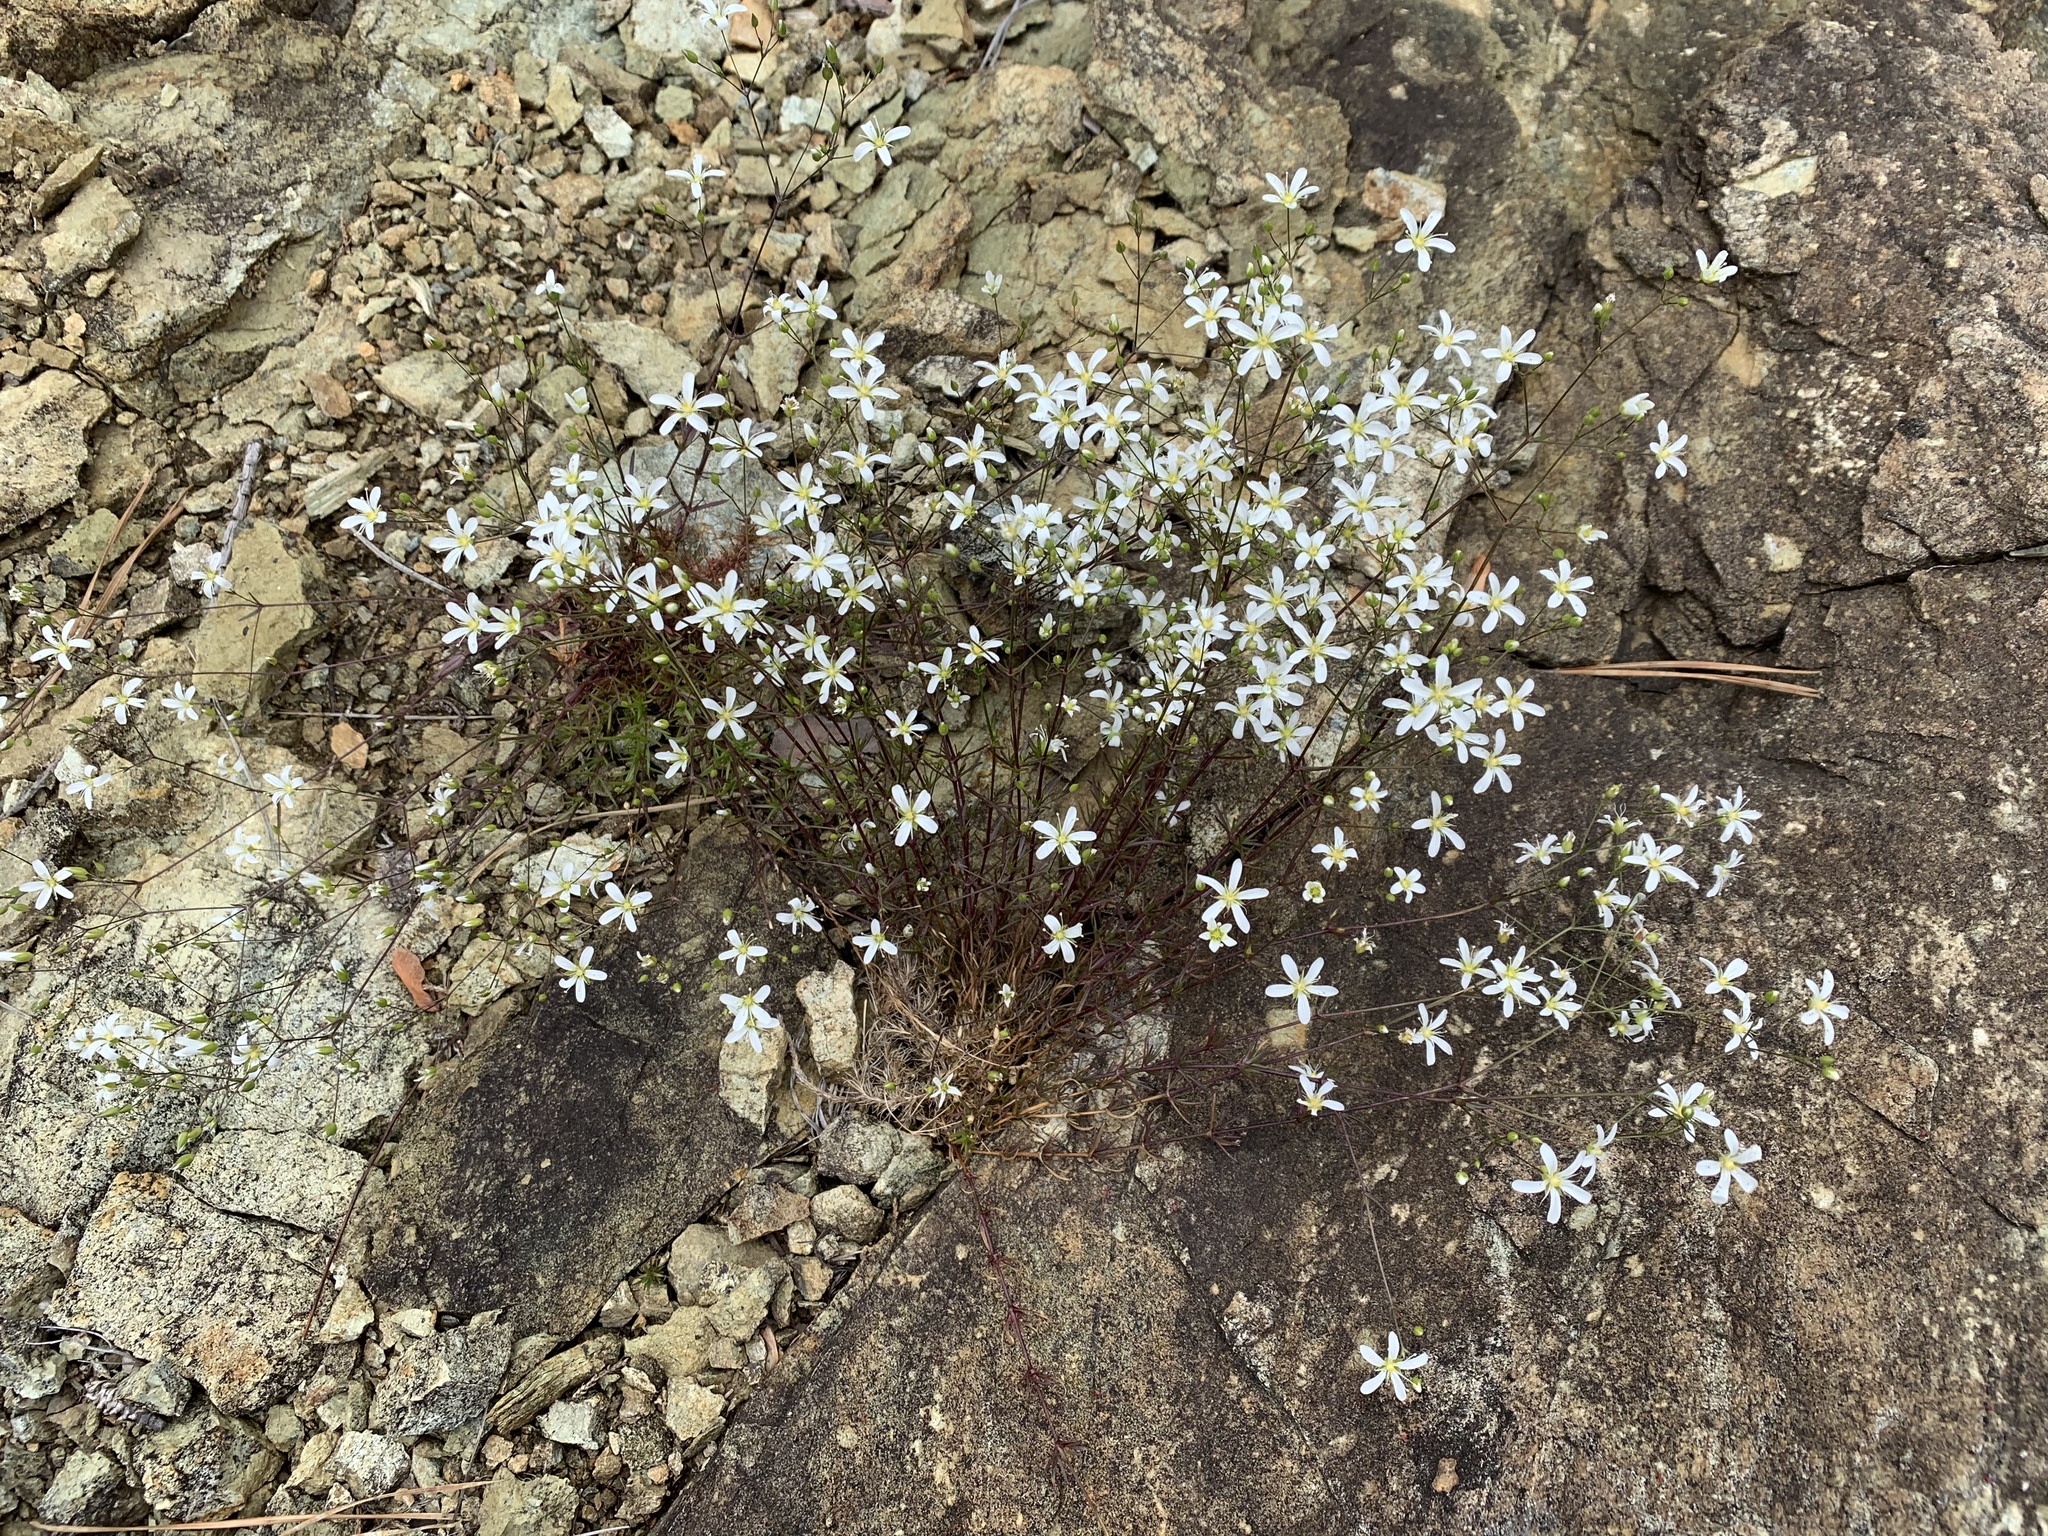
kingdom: Plantae
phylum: Tracheophyta
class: Magnoliopsida
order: Caryophyllales
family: Caryophyllaceae
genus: Sabulina
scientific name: Sabulina michauxii
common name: Michaux's stitchwort
